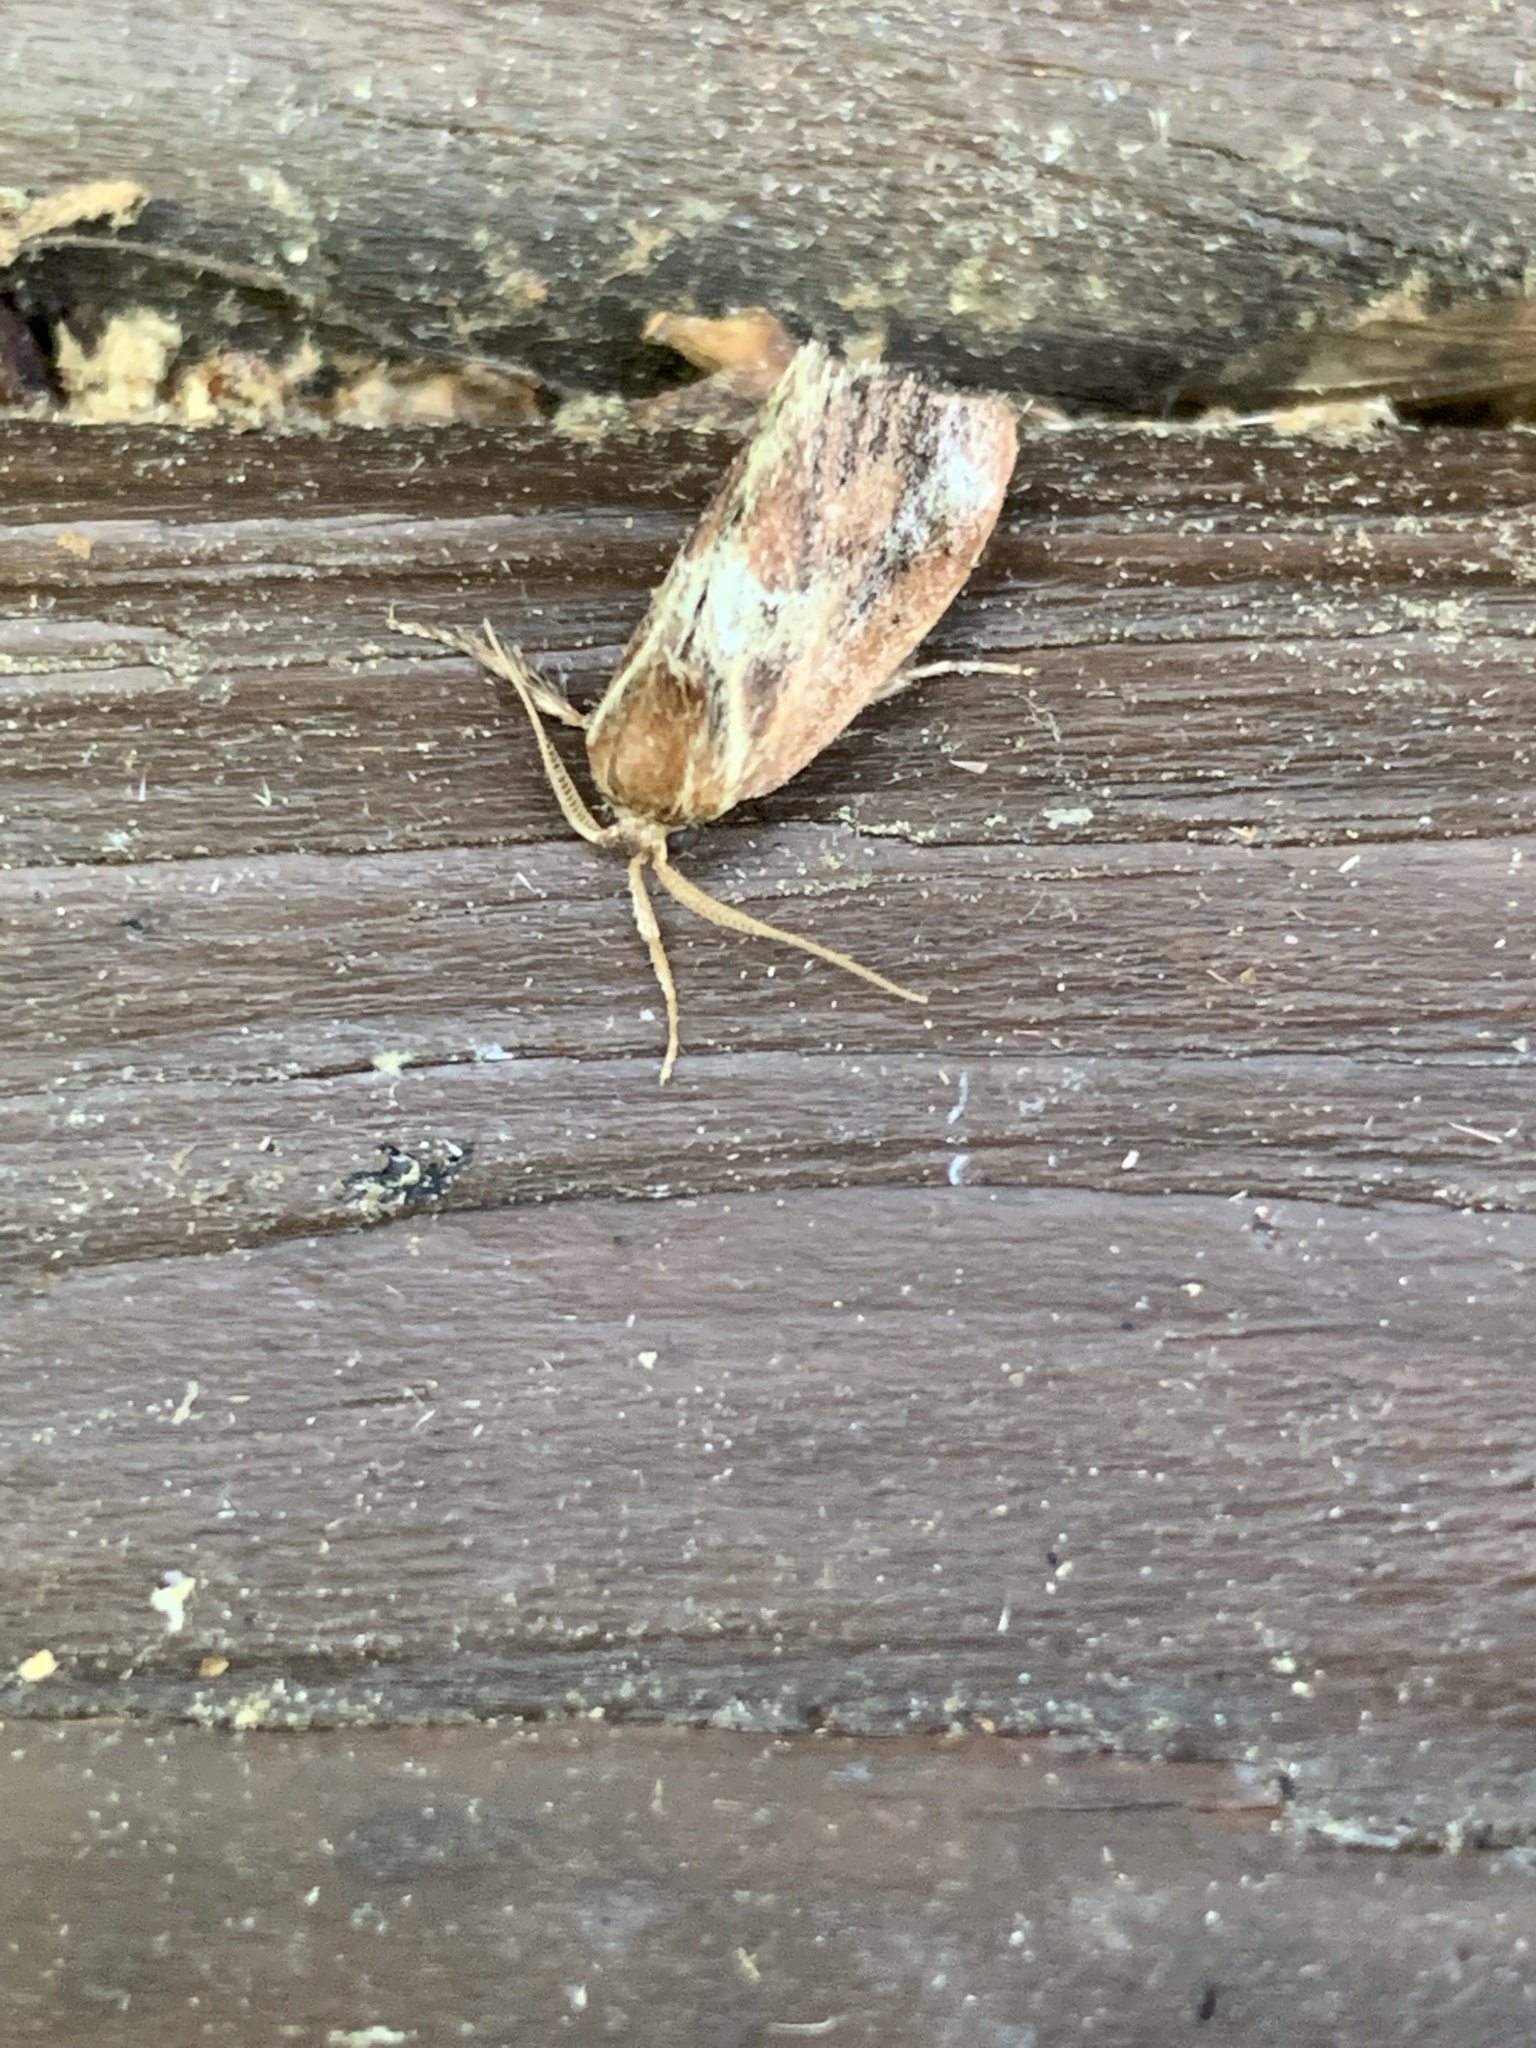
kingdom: Animalia
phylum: Arthropoda
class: Insecta
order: Lepidoptera
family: Limacodidae
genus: Adoneta
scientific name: Adoneta spinuloides
